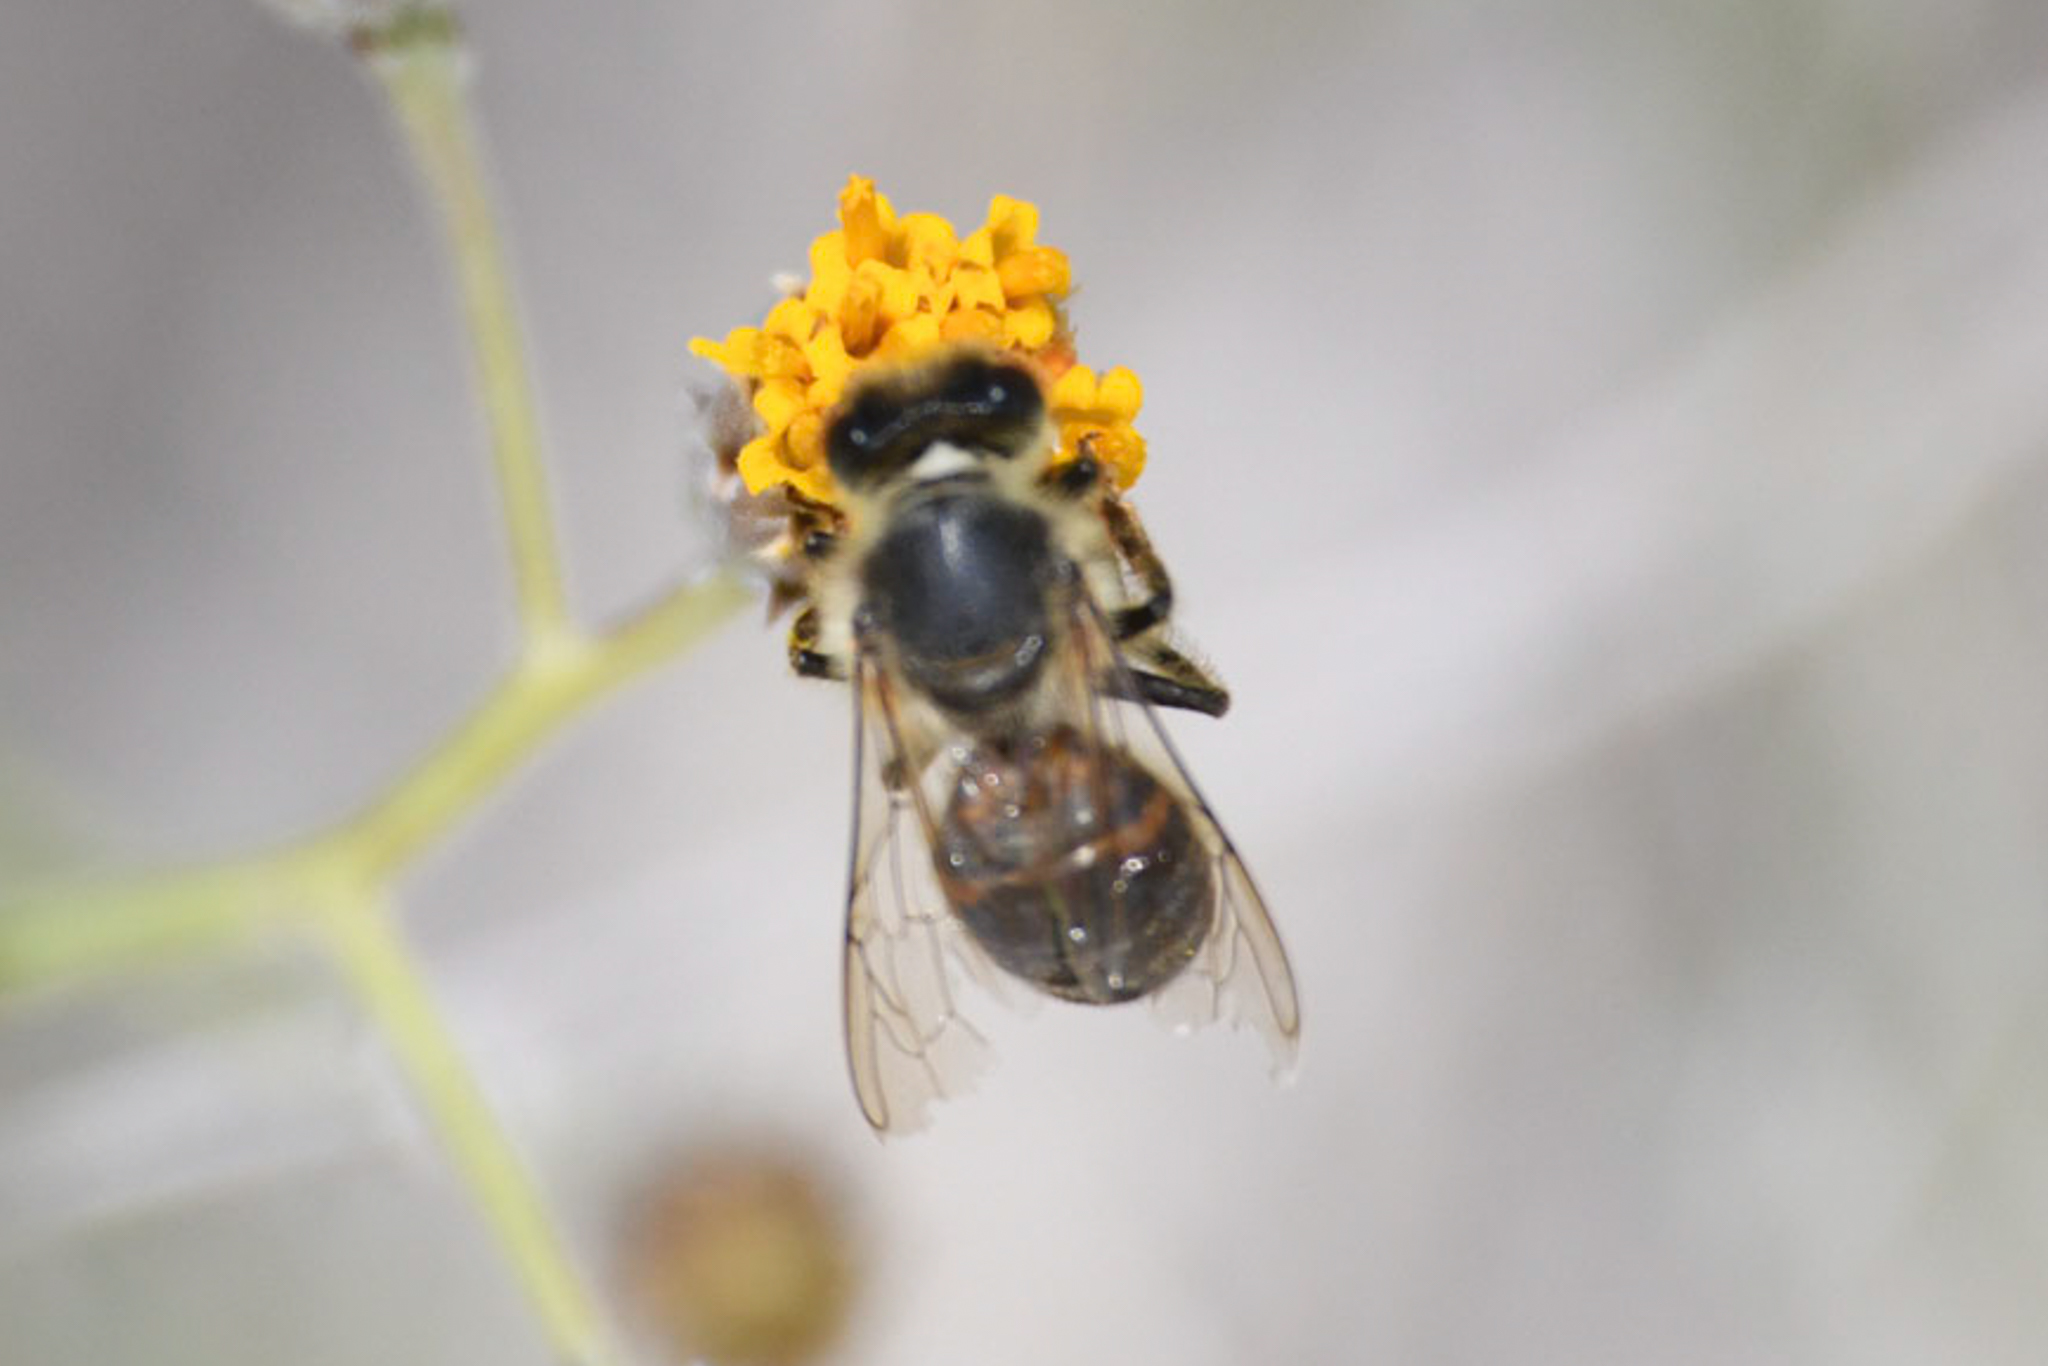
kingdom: Animalia
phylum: Arthropoda
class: Insecta
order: Hymenoptera
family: Apidae
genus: Apis
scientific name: Apis mellifera
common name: Honey bee
